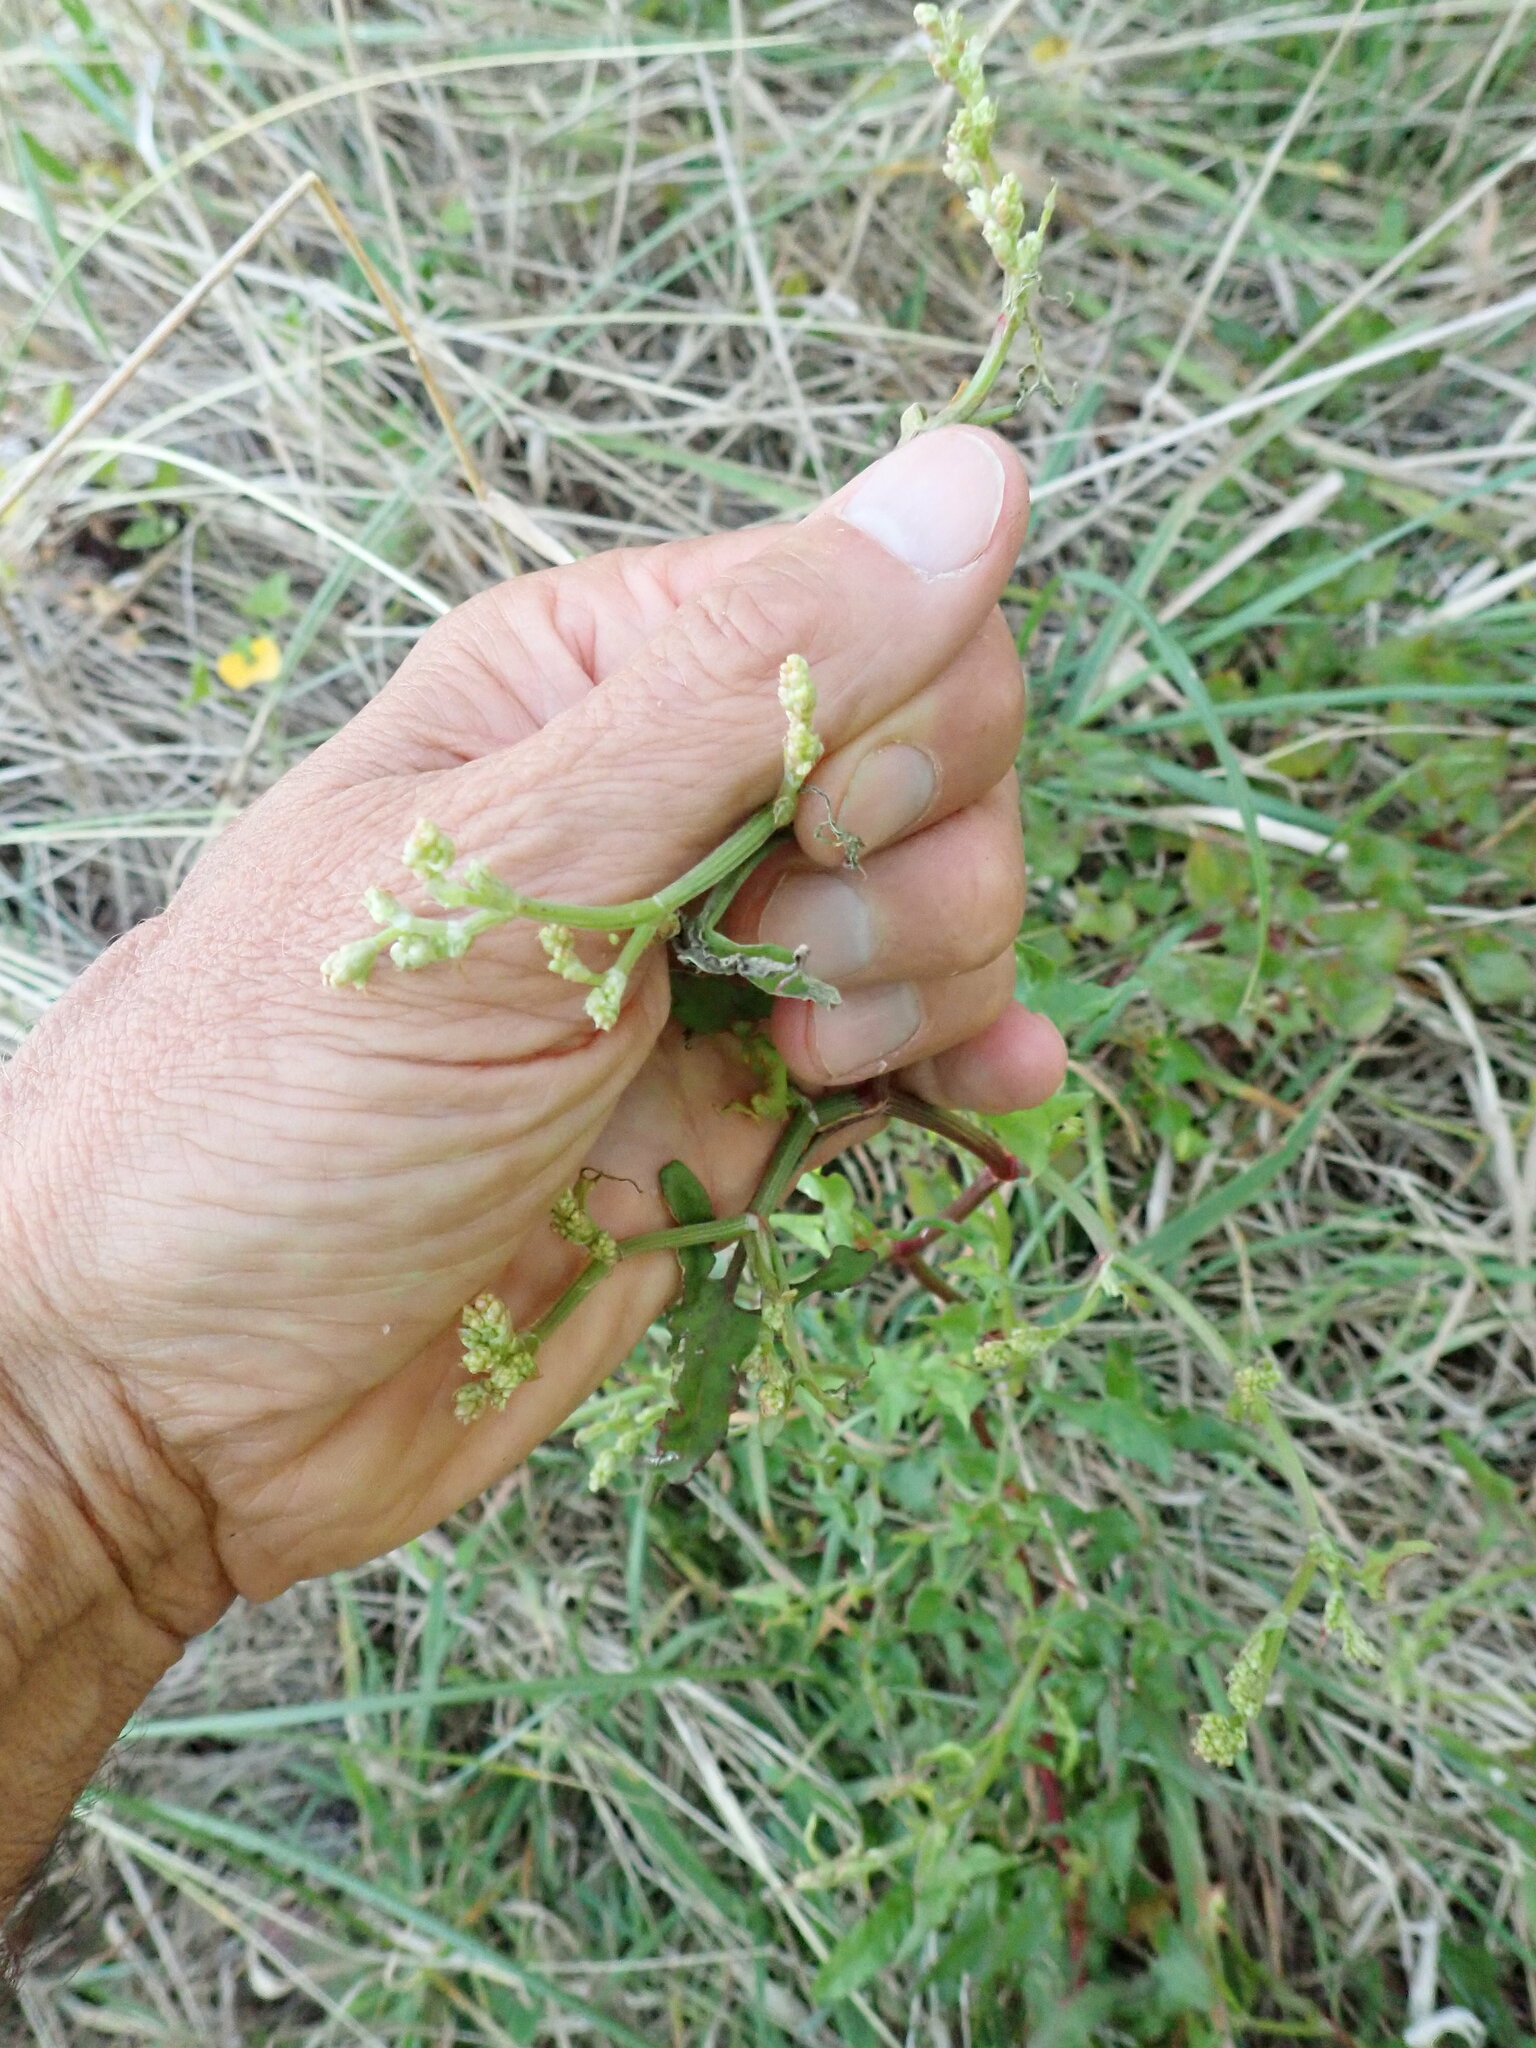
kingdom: Plantae
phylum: Tracheophyta
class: Magnoliopsida
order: Caryophyllales
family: Polygonaceae
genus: Rumex
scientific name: Rumex sagittatus
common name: Climbing dock
